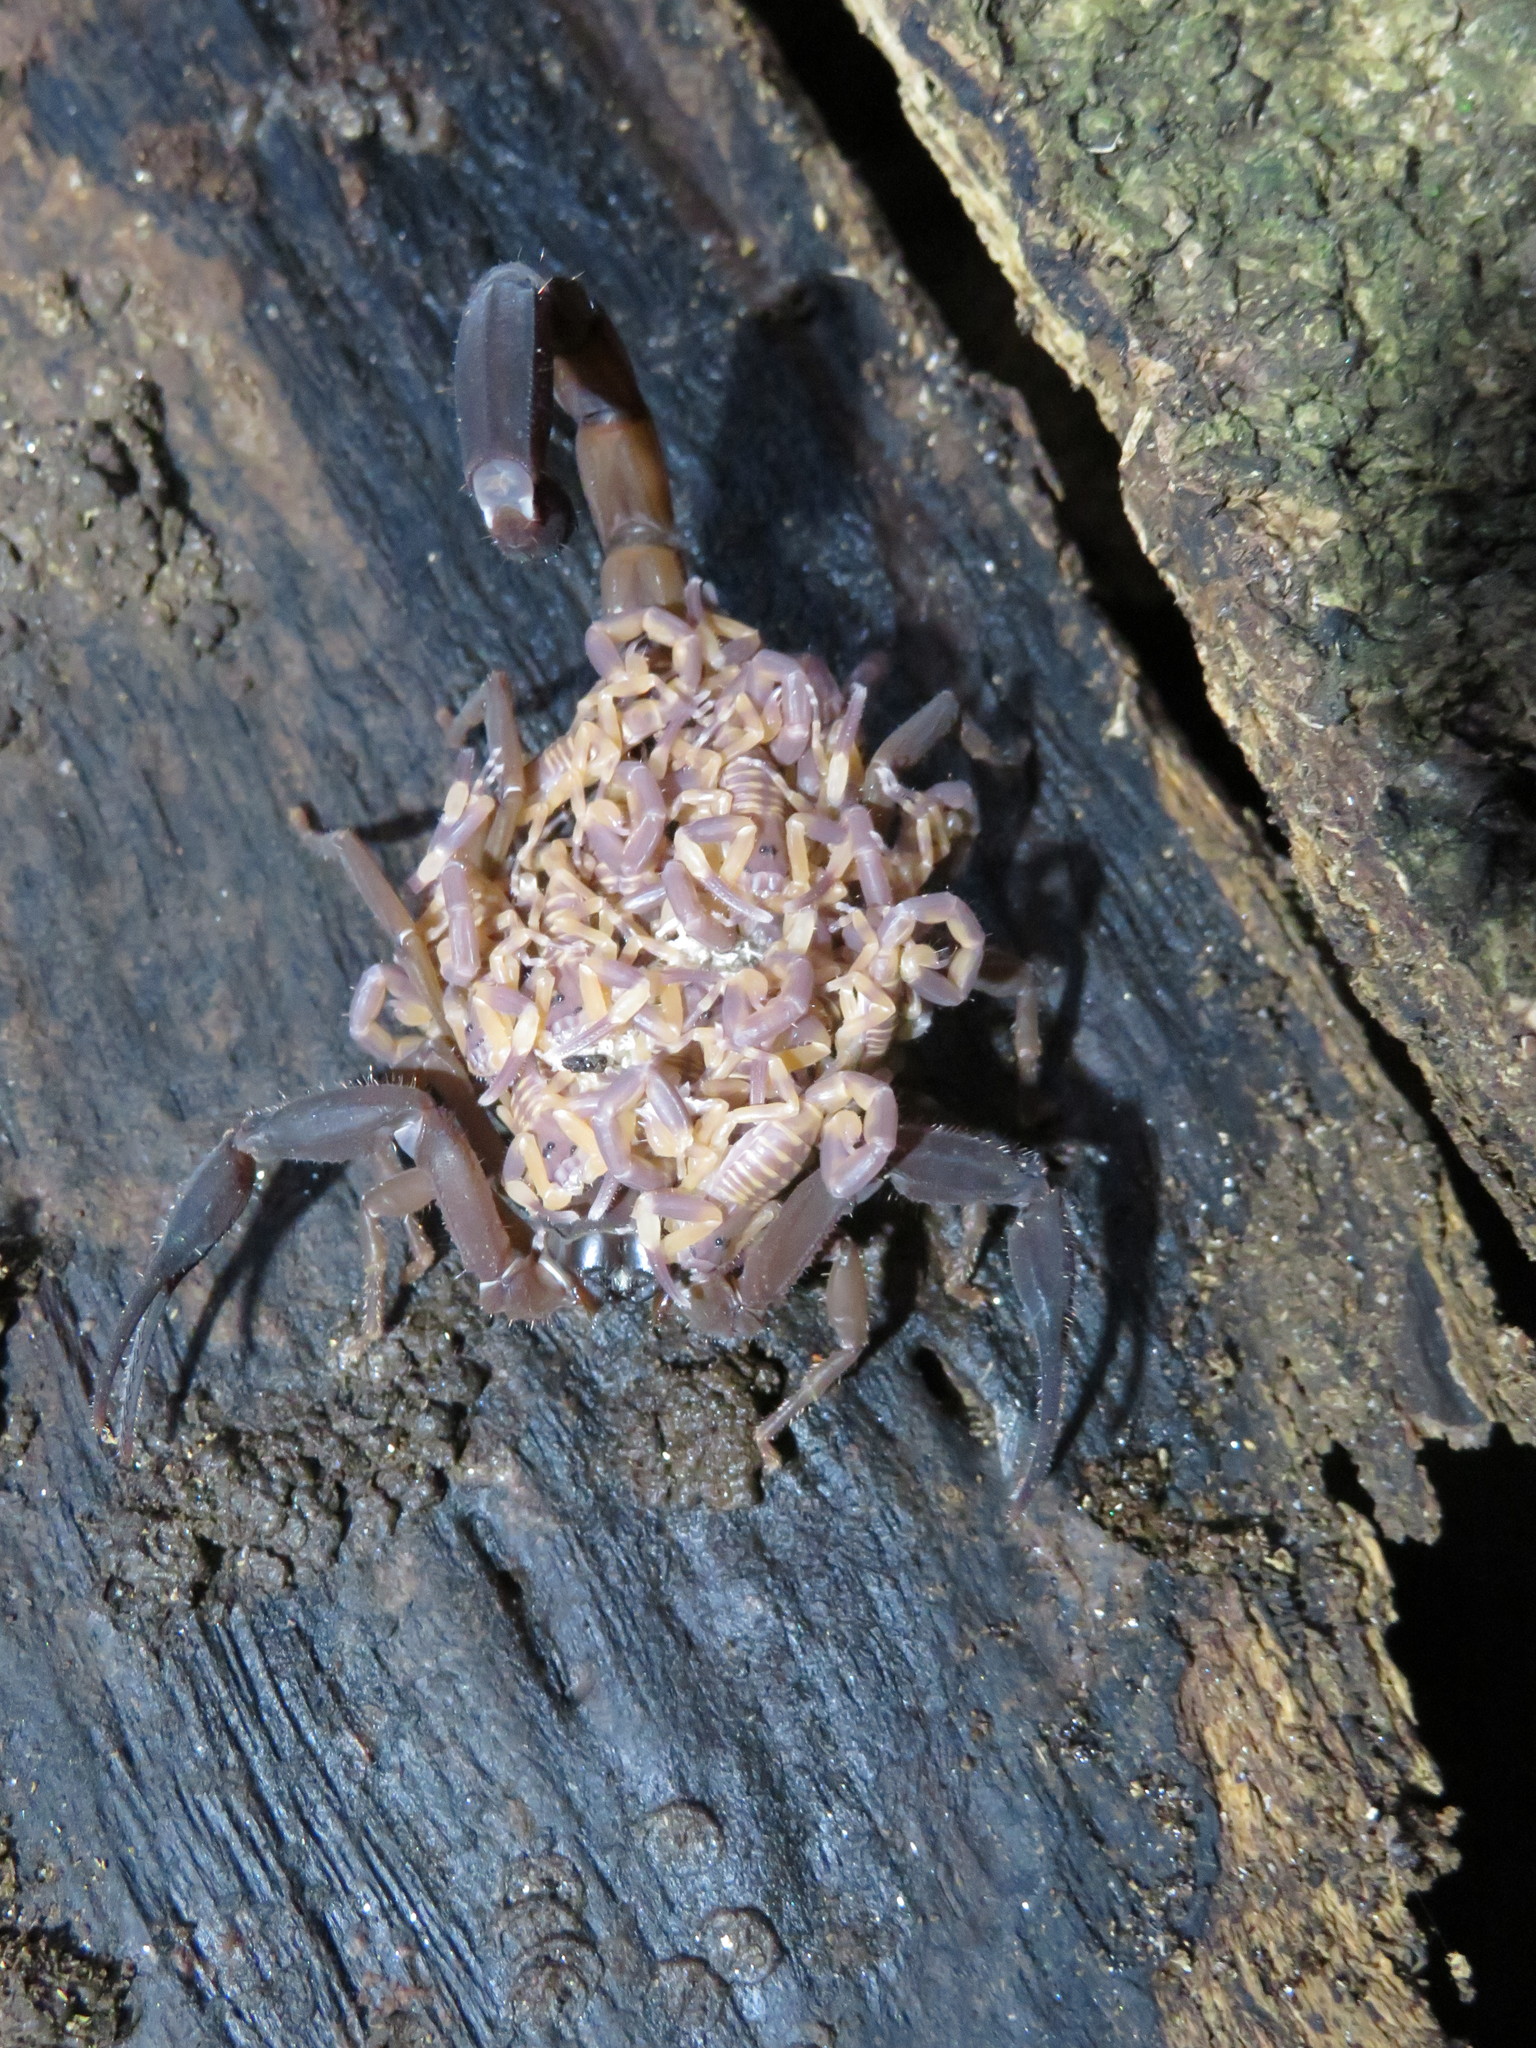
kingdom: Animalia
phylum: Arthropoda
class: Arachnida
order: Scorpiones
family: Buthidae
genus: Babycurus
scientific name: Babycurus gigas
